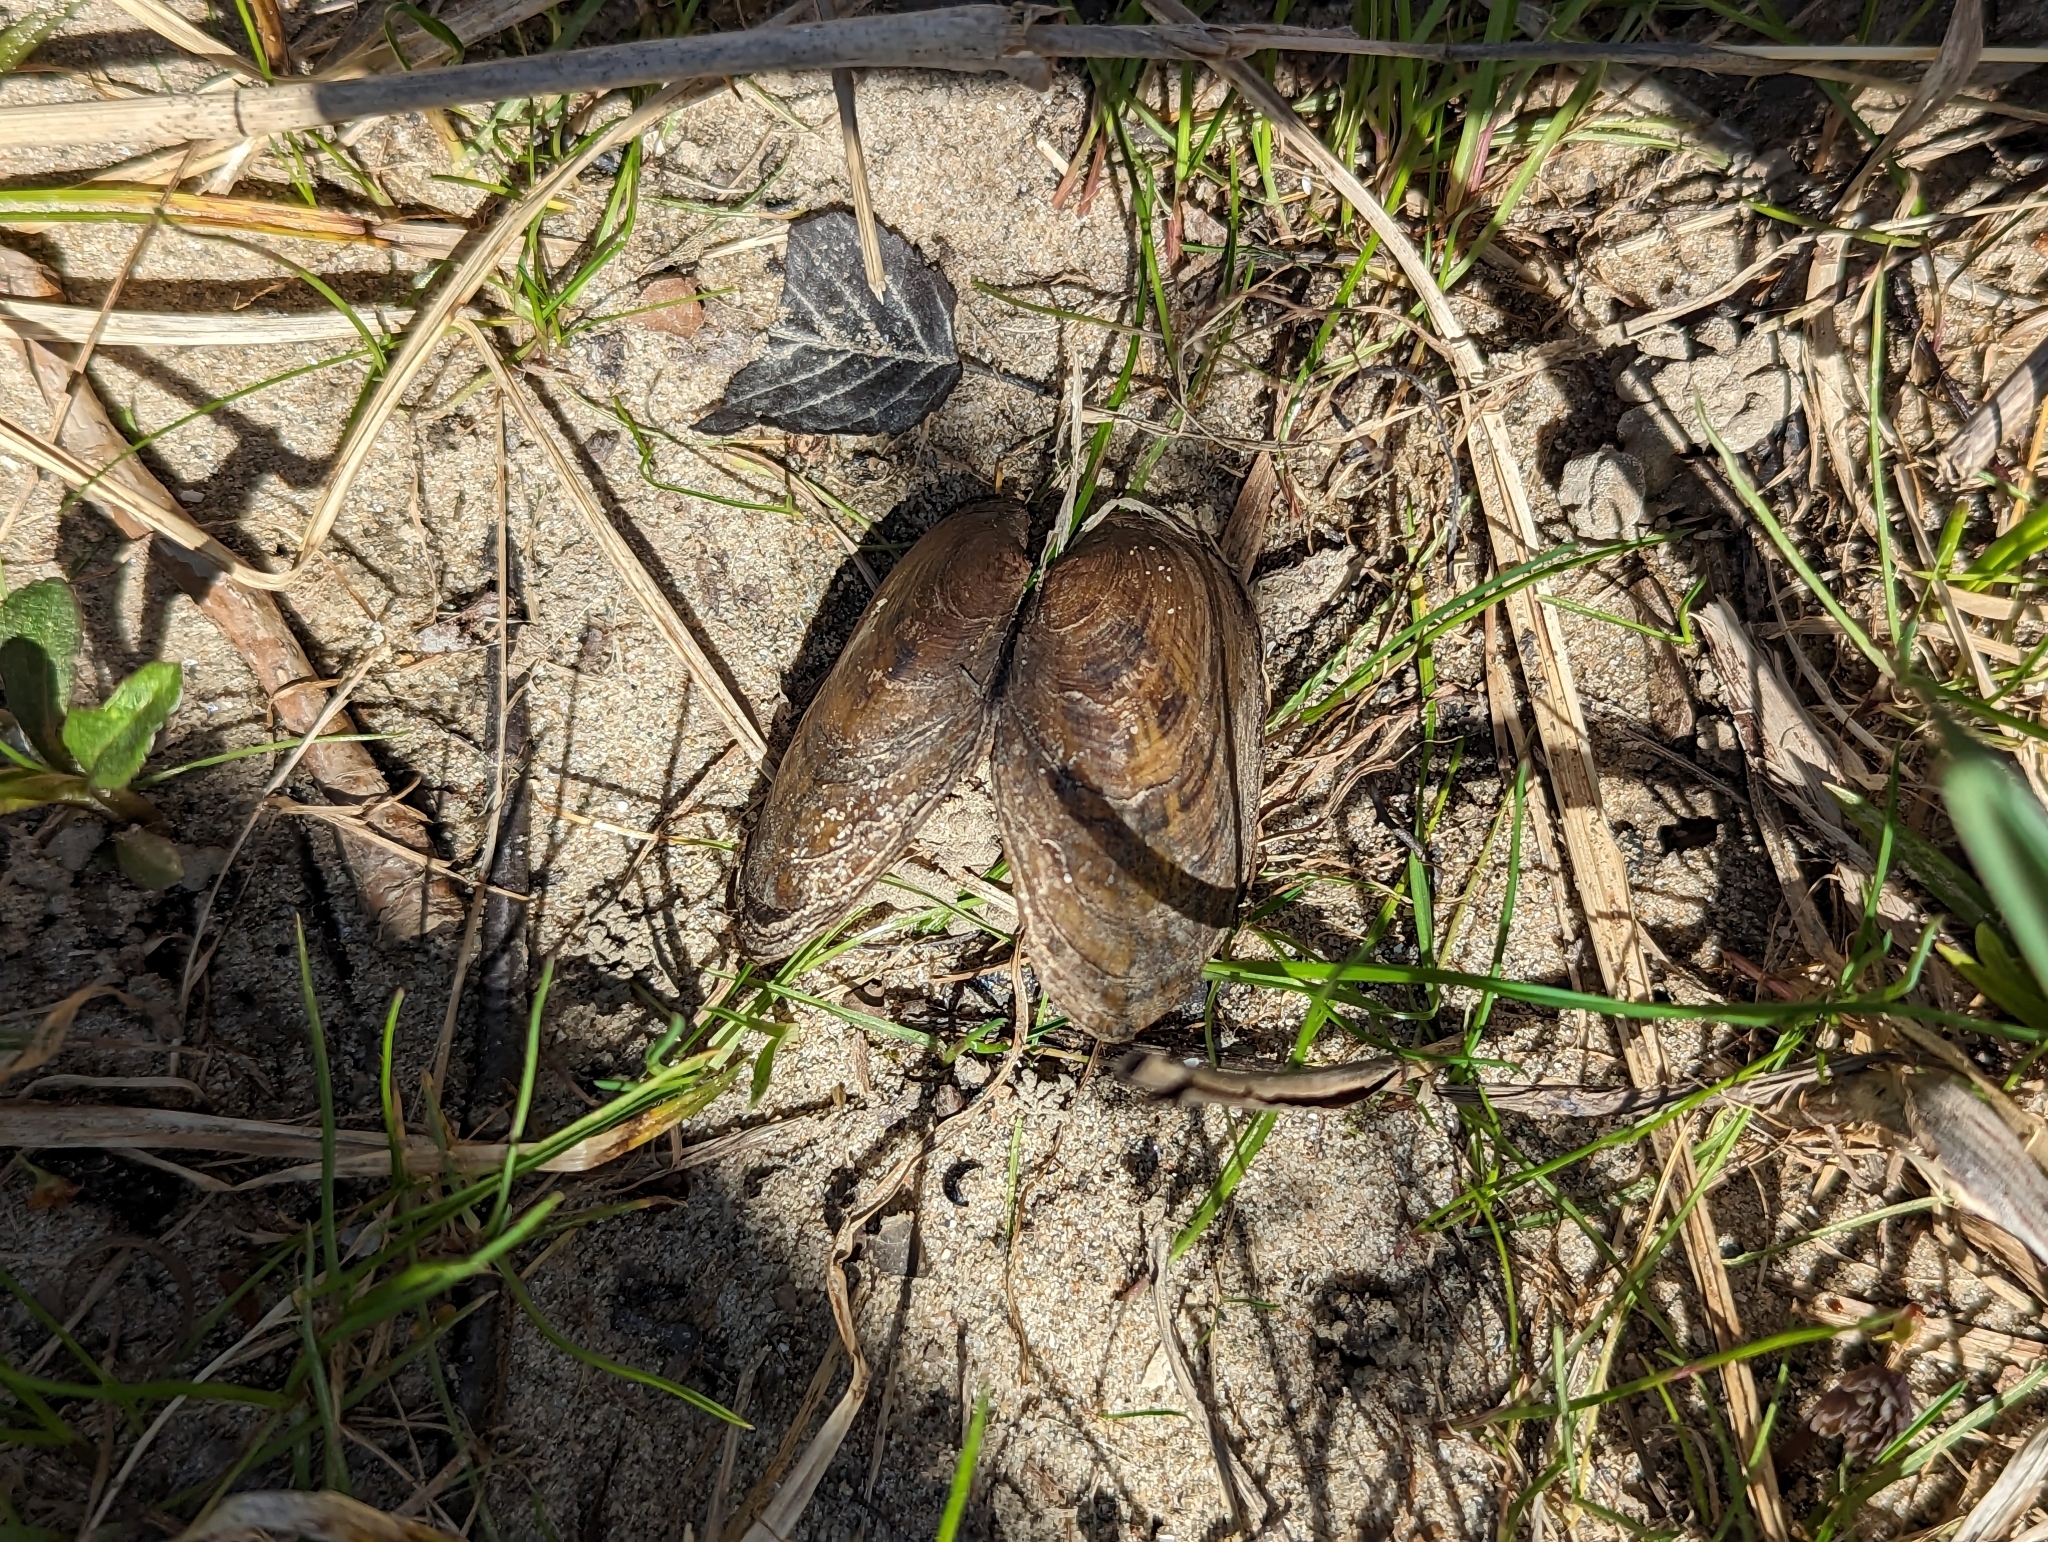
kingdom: Animalia
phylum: Mollusca
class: Bivalvia
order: Unionida
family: Unionidae
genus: Cambarunio
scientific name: Cambarunio iris
